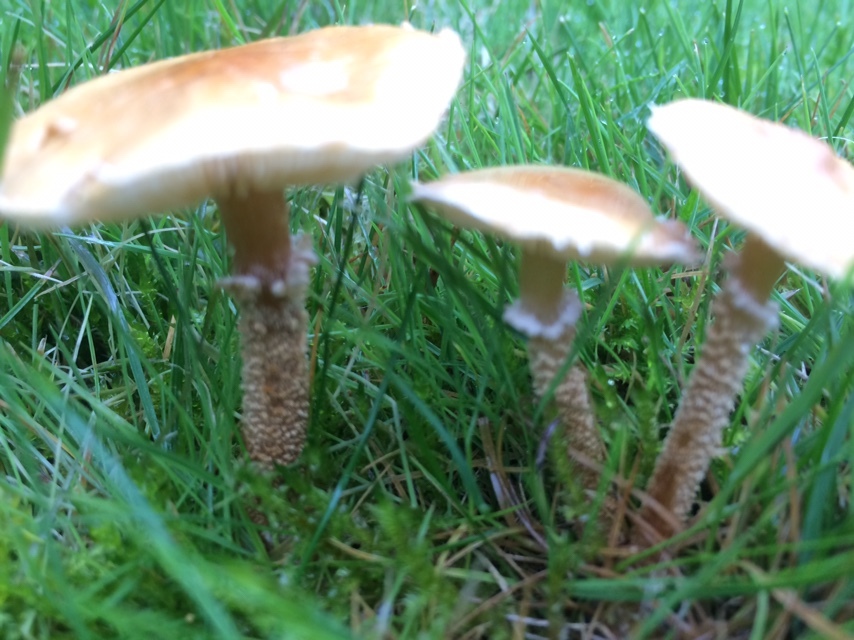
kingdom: Fungi
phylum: Basidiomycota
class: Agaricomycetes
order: Agaricales
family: Tricholomataceae
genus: Cystoderma
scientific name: Cystoderma amianthinum
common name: Earthy powdercap
